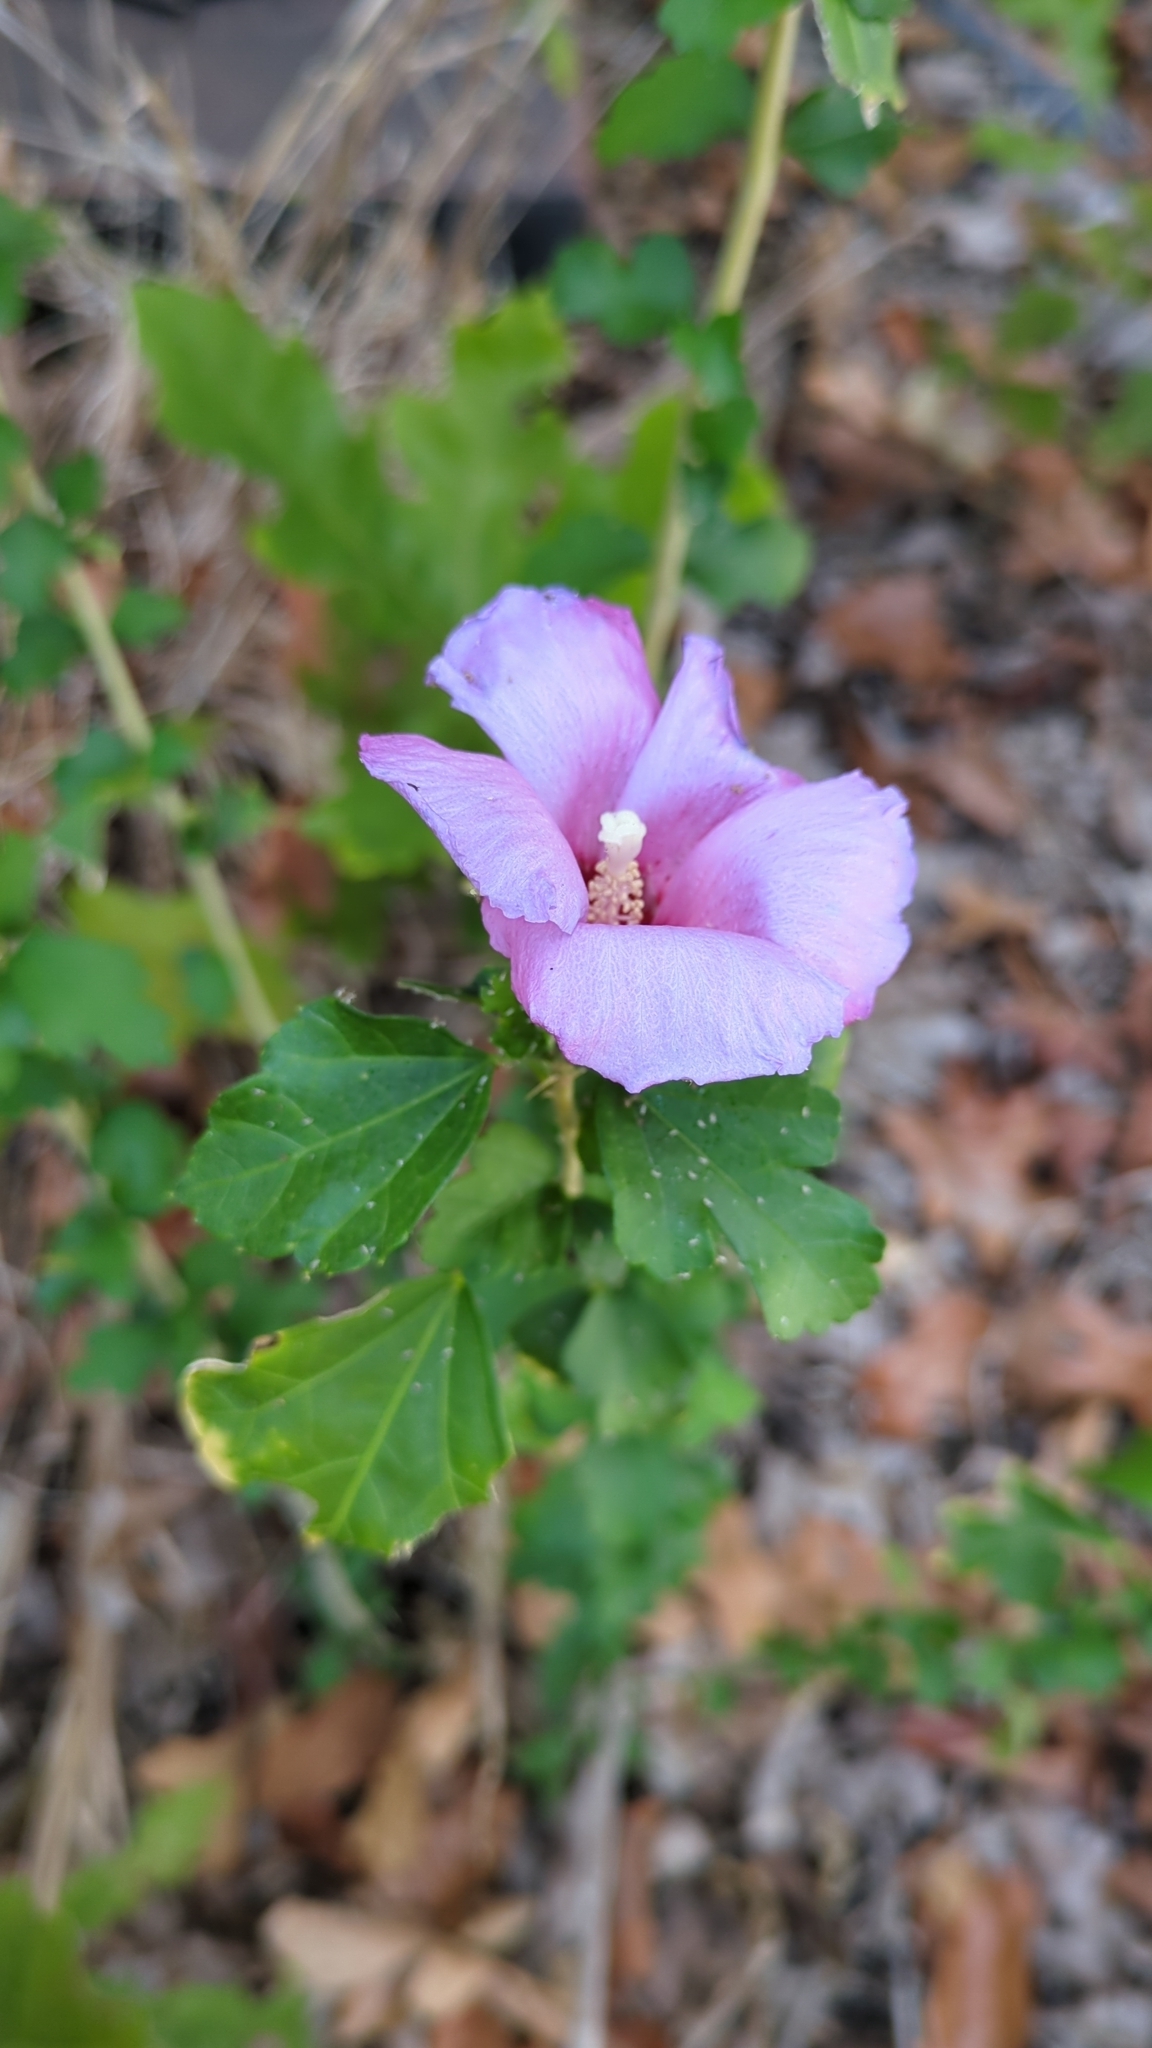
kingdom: Plantae
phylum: Tracheophyta
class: Magnoliopsida
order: Malvales
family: Malvaceae
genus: Hibiscus
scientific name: Hibiscus syriacus
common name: Syrian ketmia
